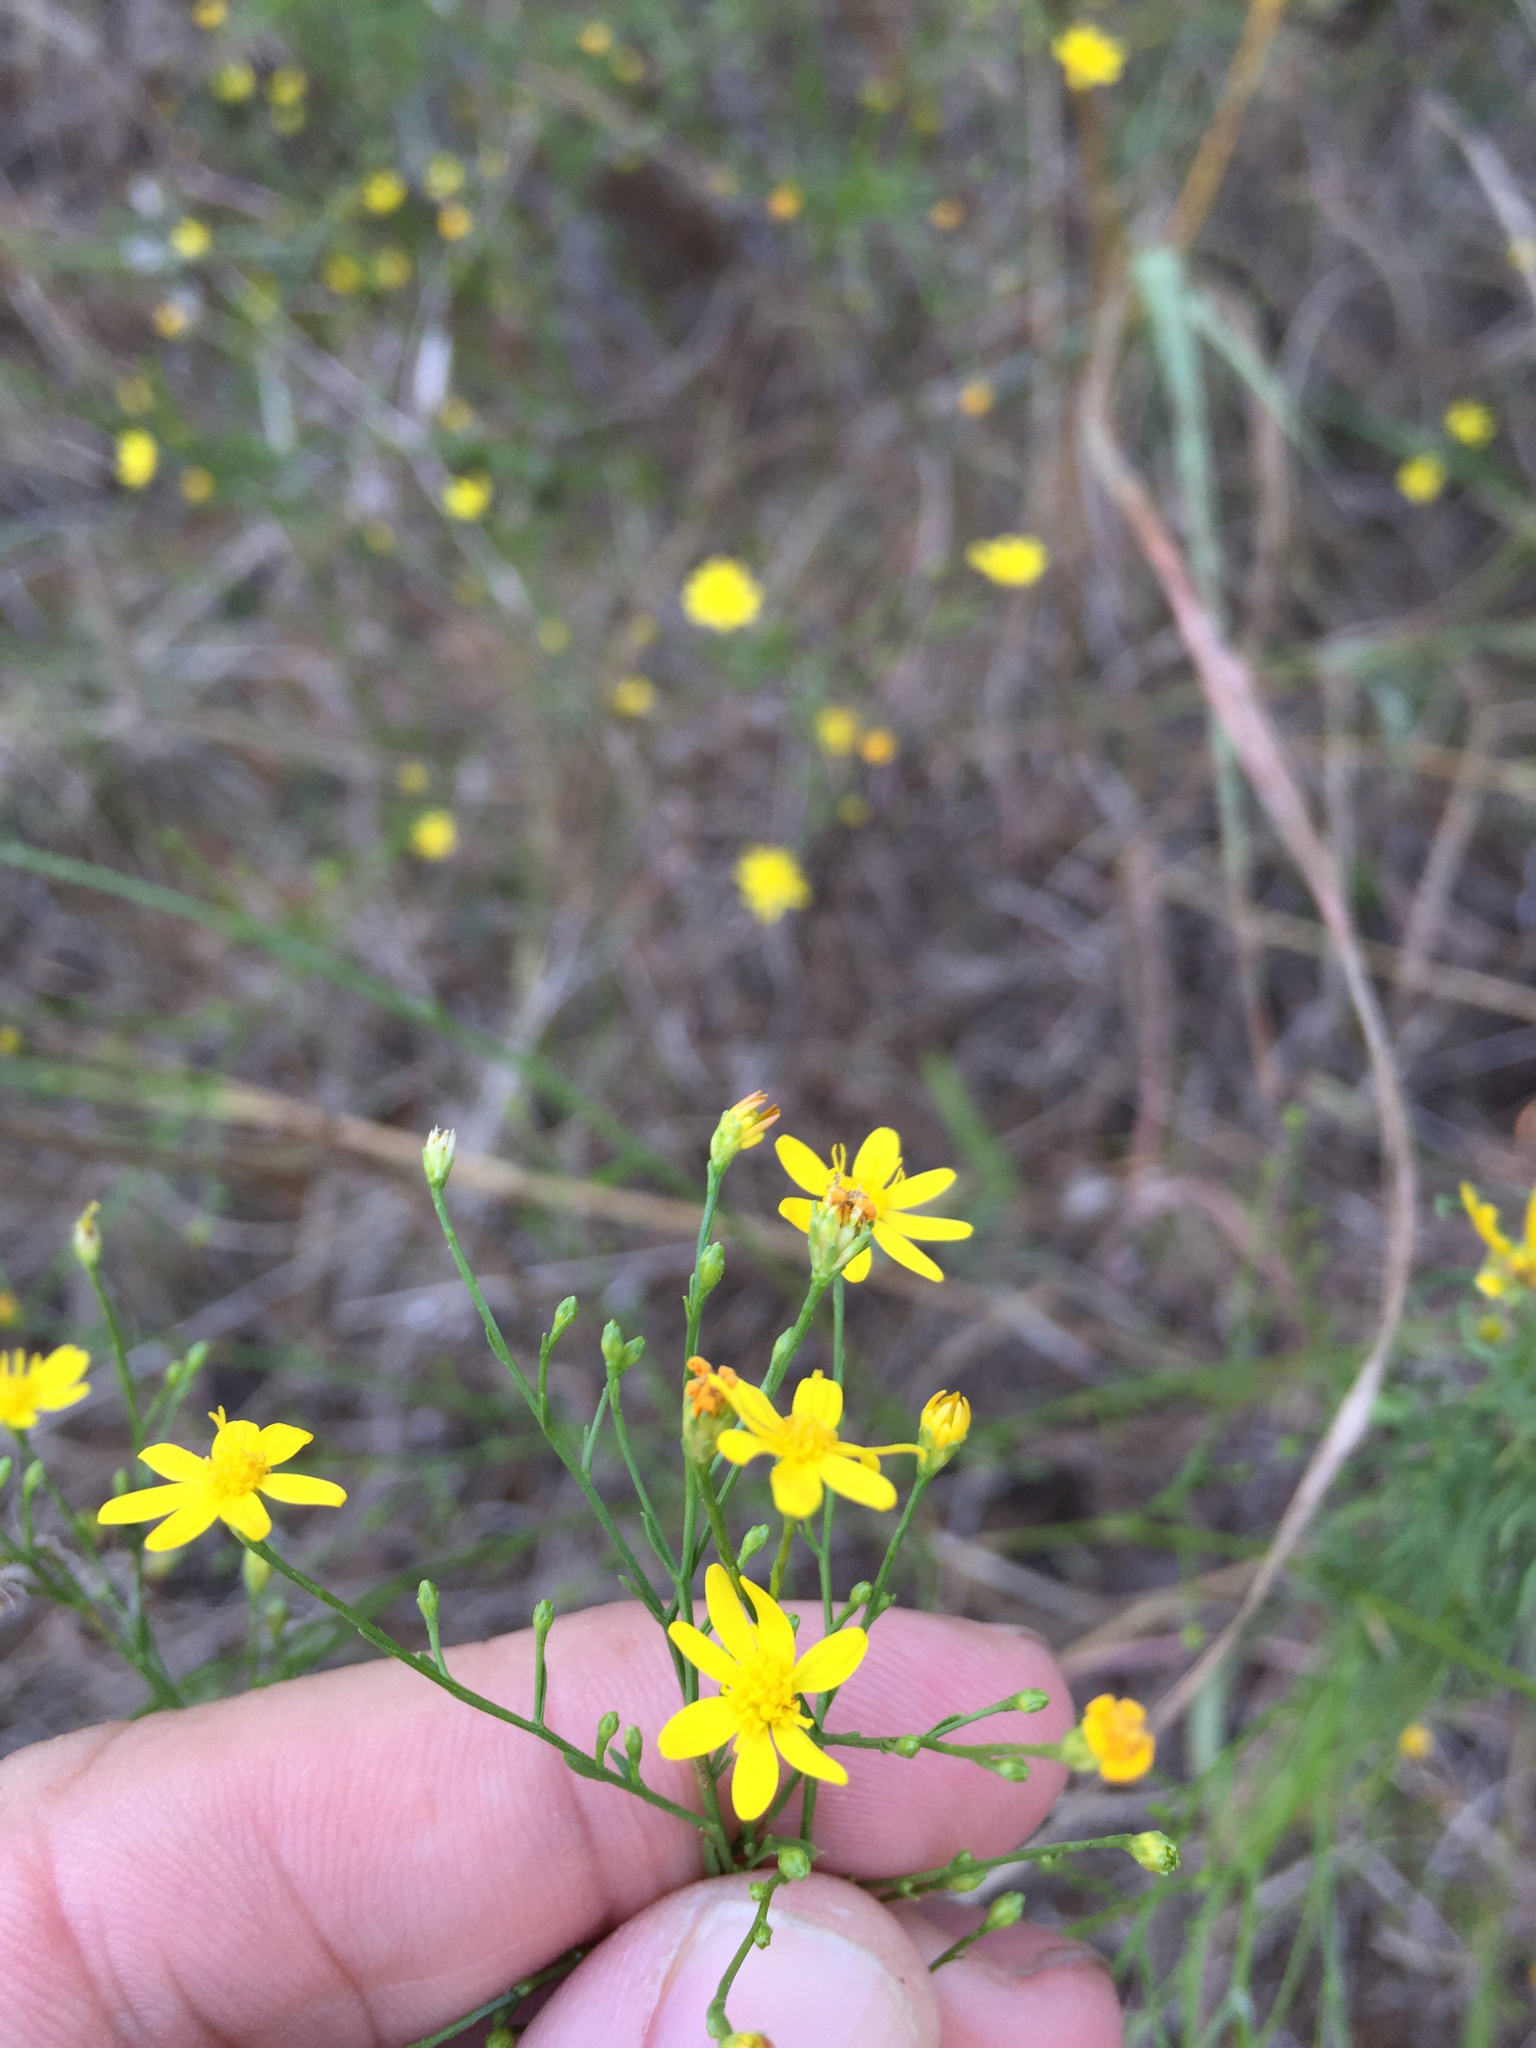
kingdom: Plantae
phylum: Tracheophyta
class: Magnoliopsida
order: Asterales
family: Asteraceae
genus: Gutierrezia
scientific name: Gutierrezia texana
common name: Texas snakeweed
